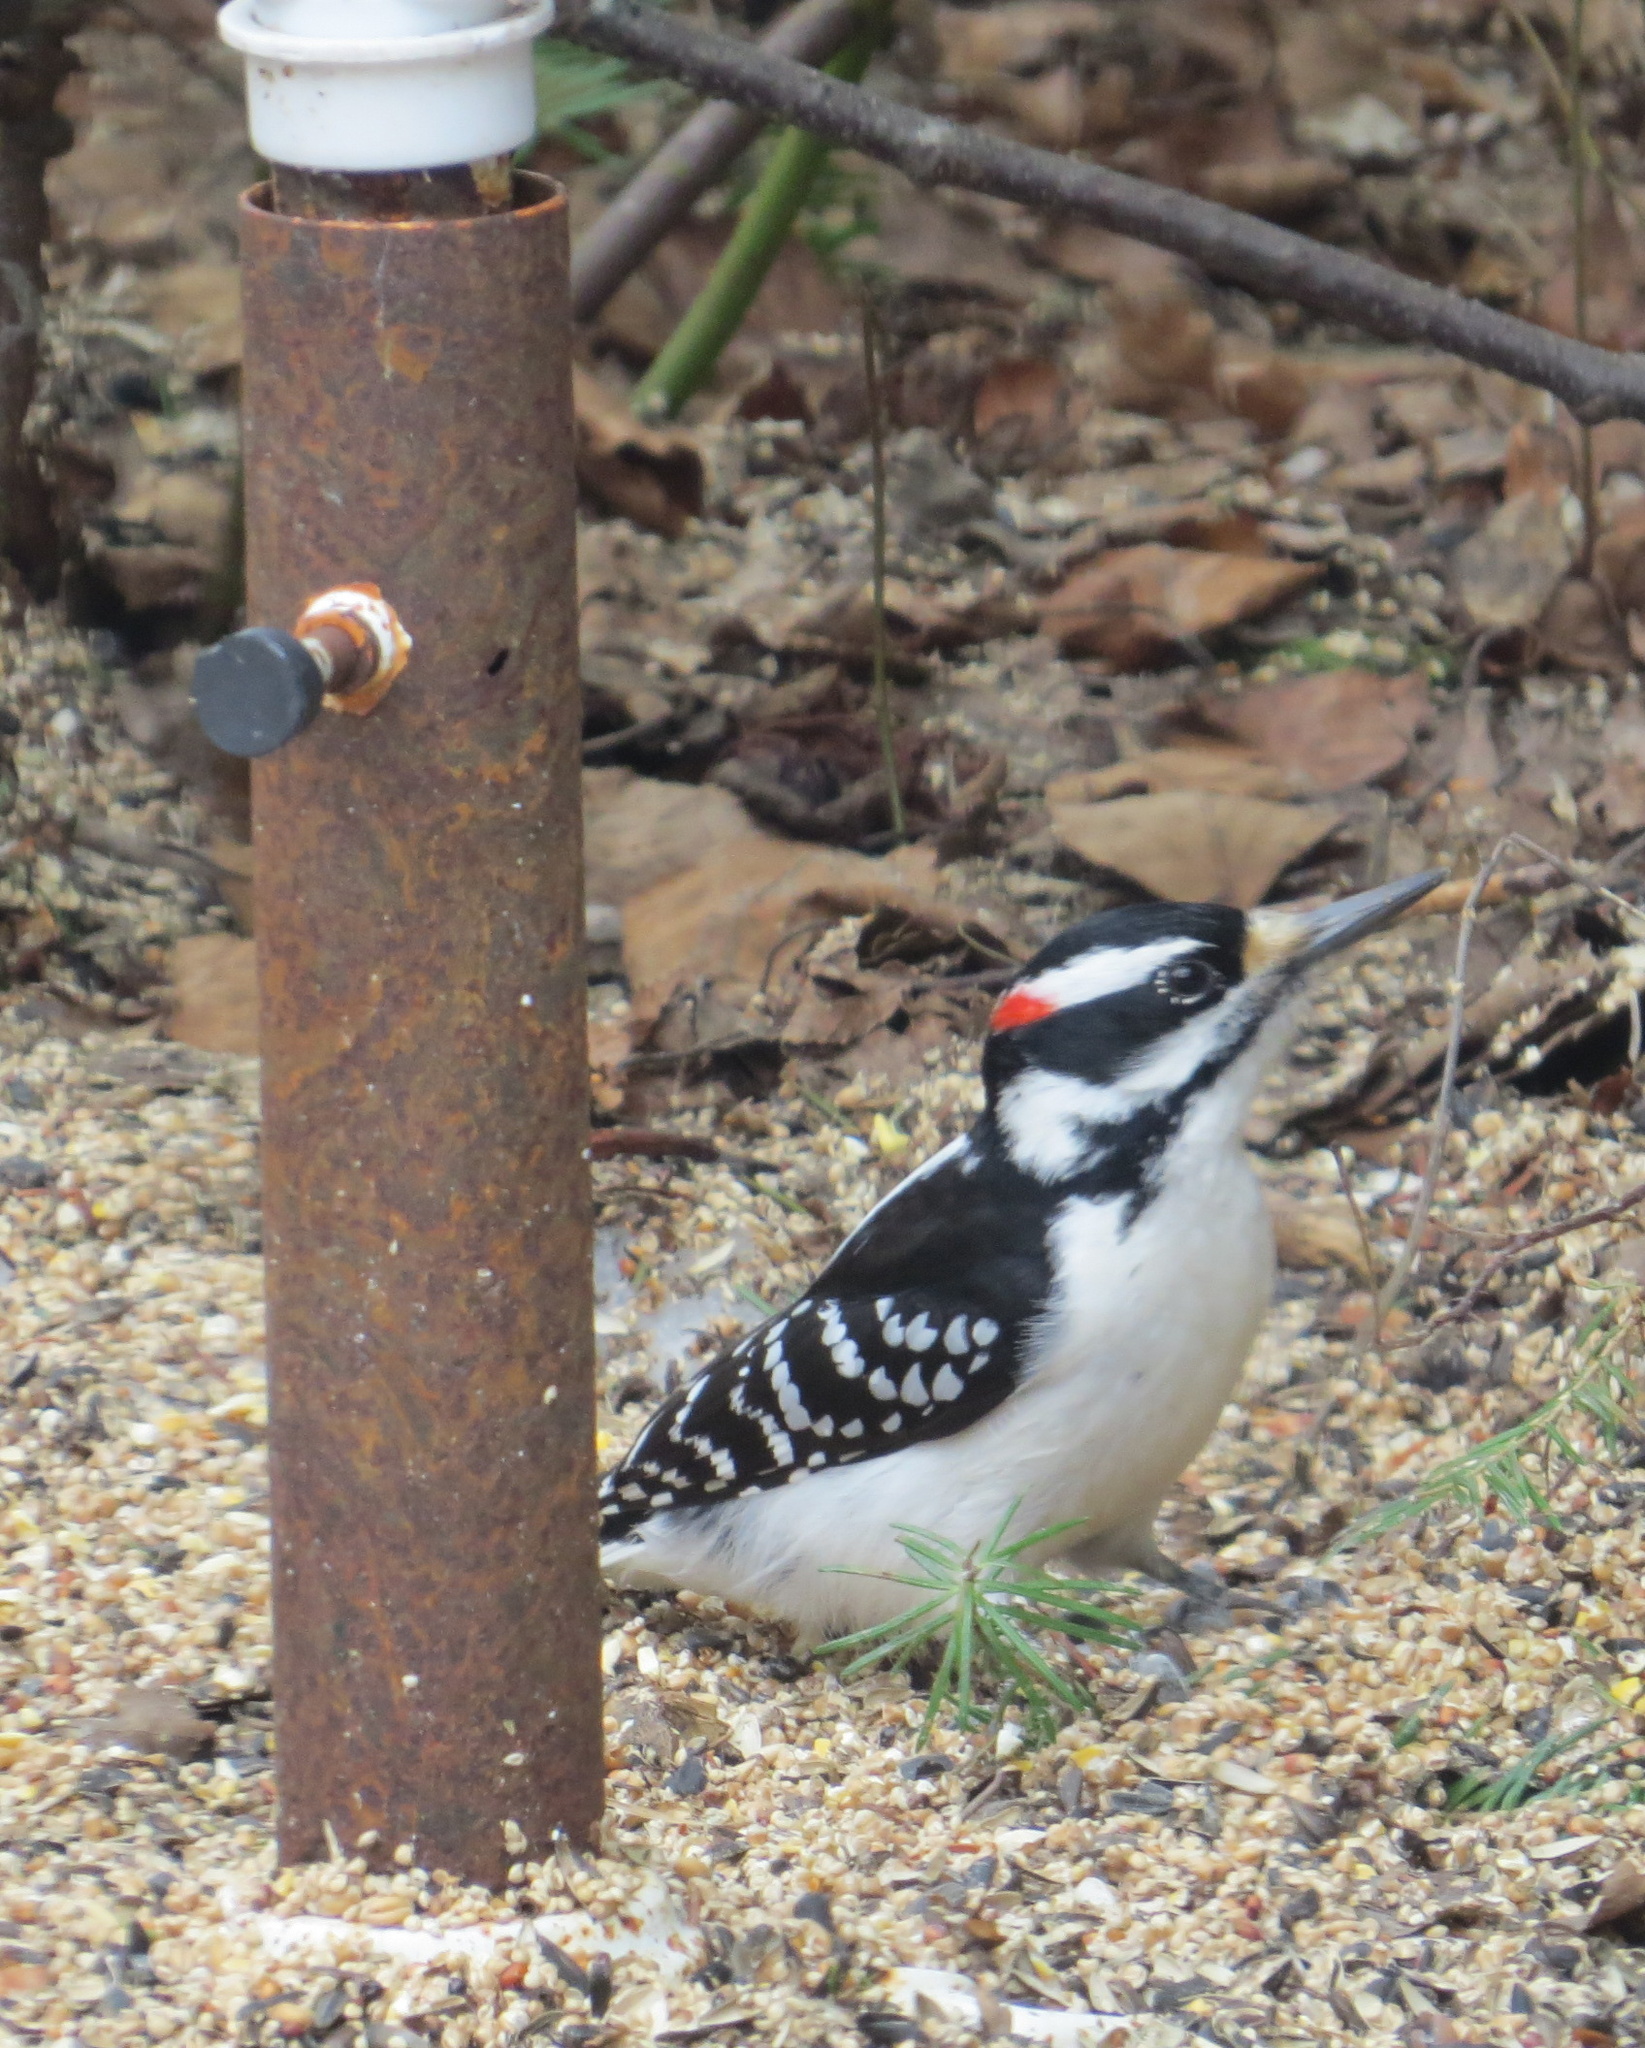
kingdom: Animalia
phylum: Chordata
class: Aves
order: Piciformes
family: Picidae
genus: Leuconotopicus
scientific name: Leuconotopicus villosus
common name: Hairy woodpecker
